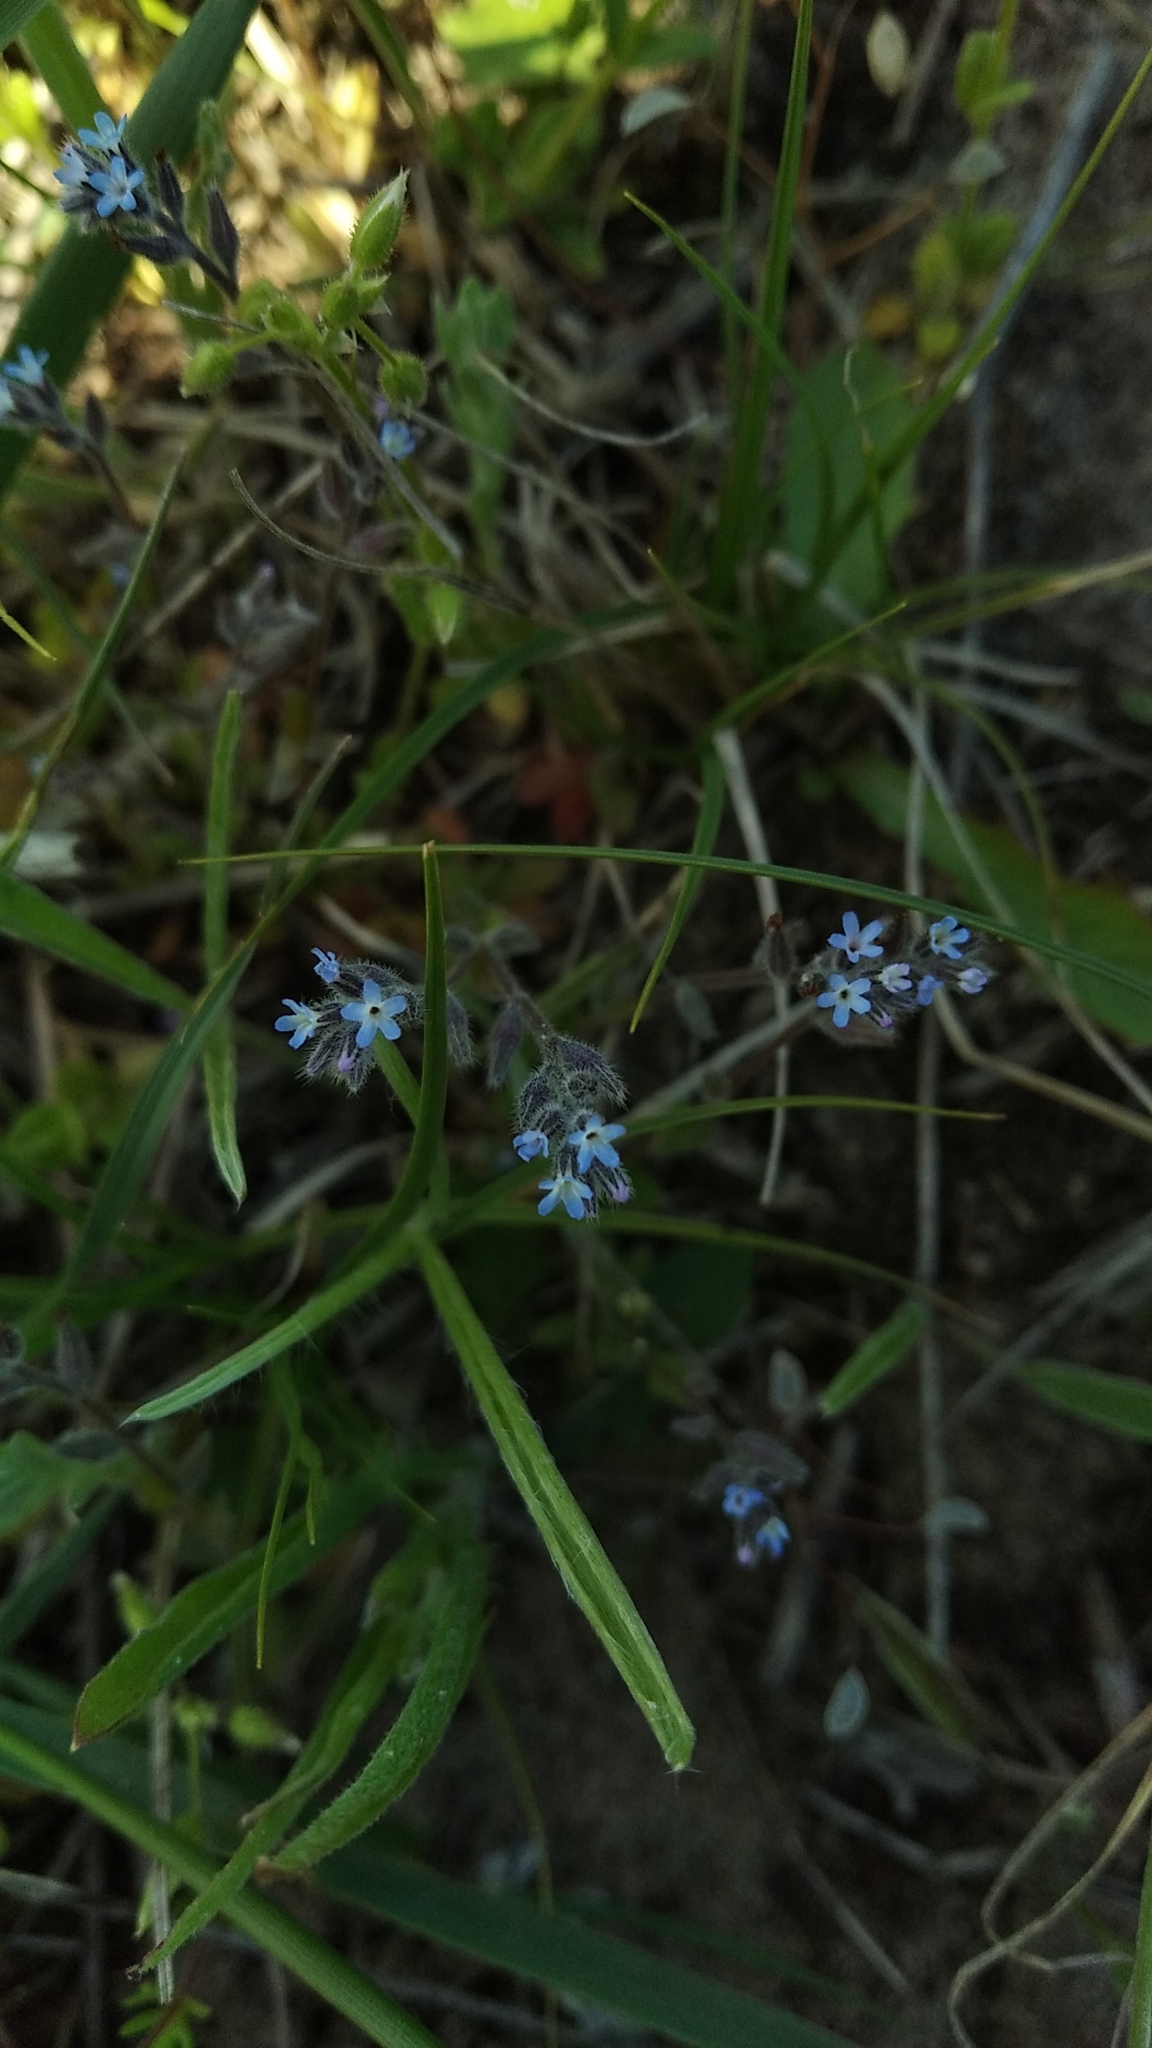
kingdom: Plantae
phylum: Tracheophyta
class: Magnoliopsida
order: Boraginales
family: Boraginaceae
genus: Myosotis
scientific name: Myosotis stricta
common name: Strict forget-me-not
